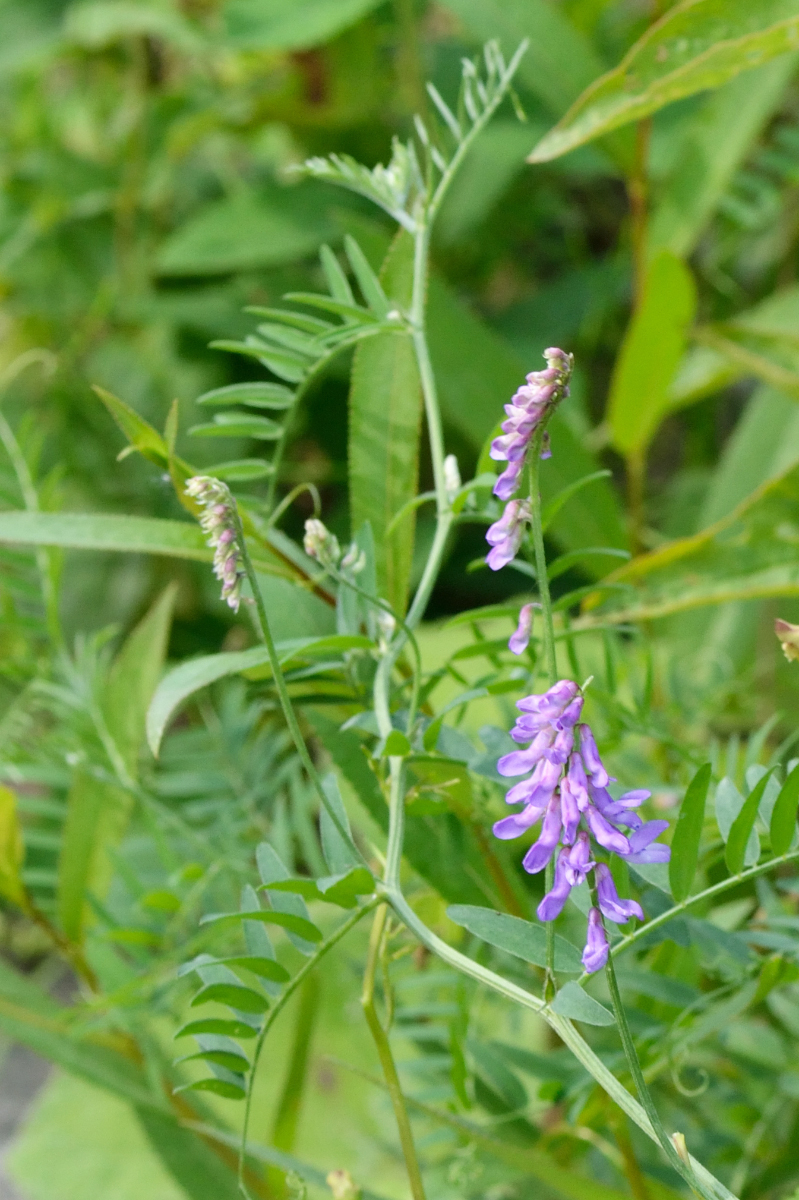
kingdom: Plantae
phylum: Tracheophyta
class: Magnoliopsida
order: Fabales
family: Fabaceae
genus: Vicia
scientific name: Vicia cracca
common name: Bird vetch
